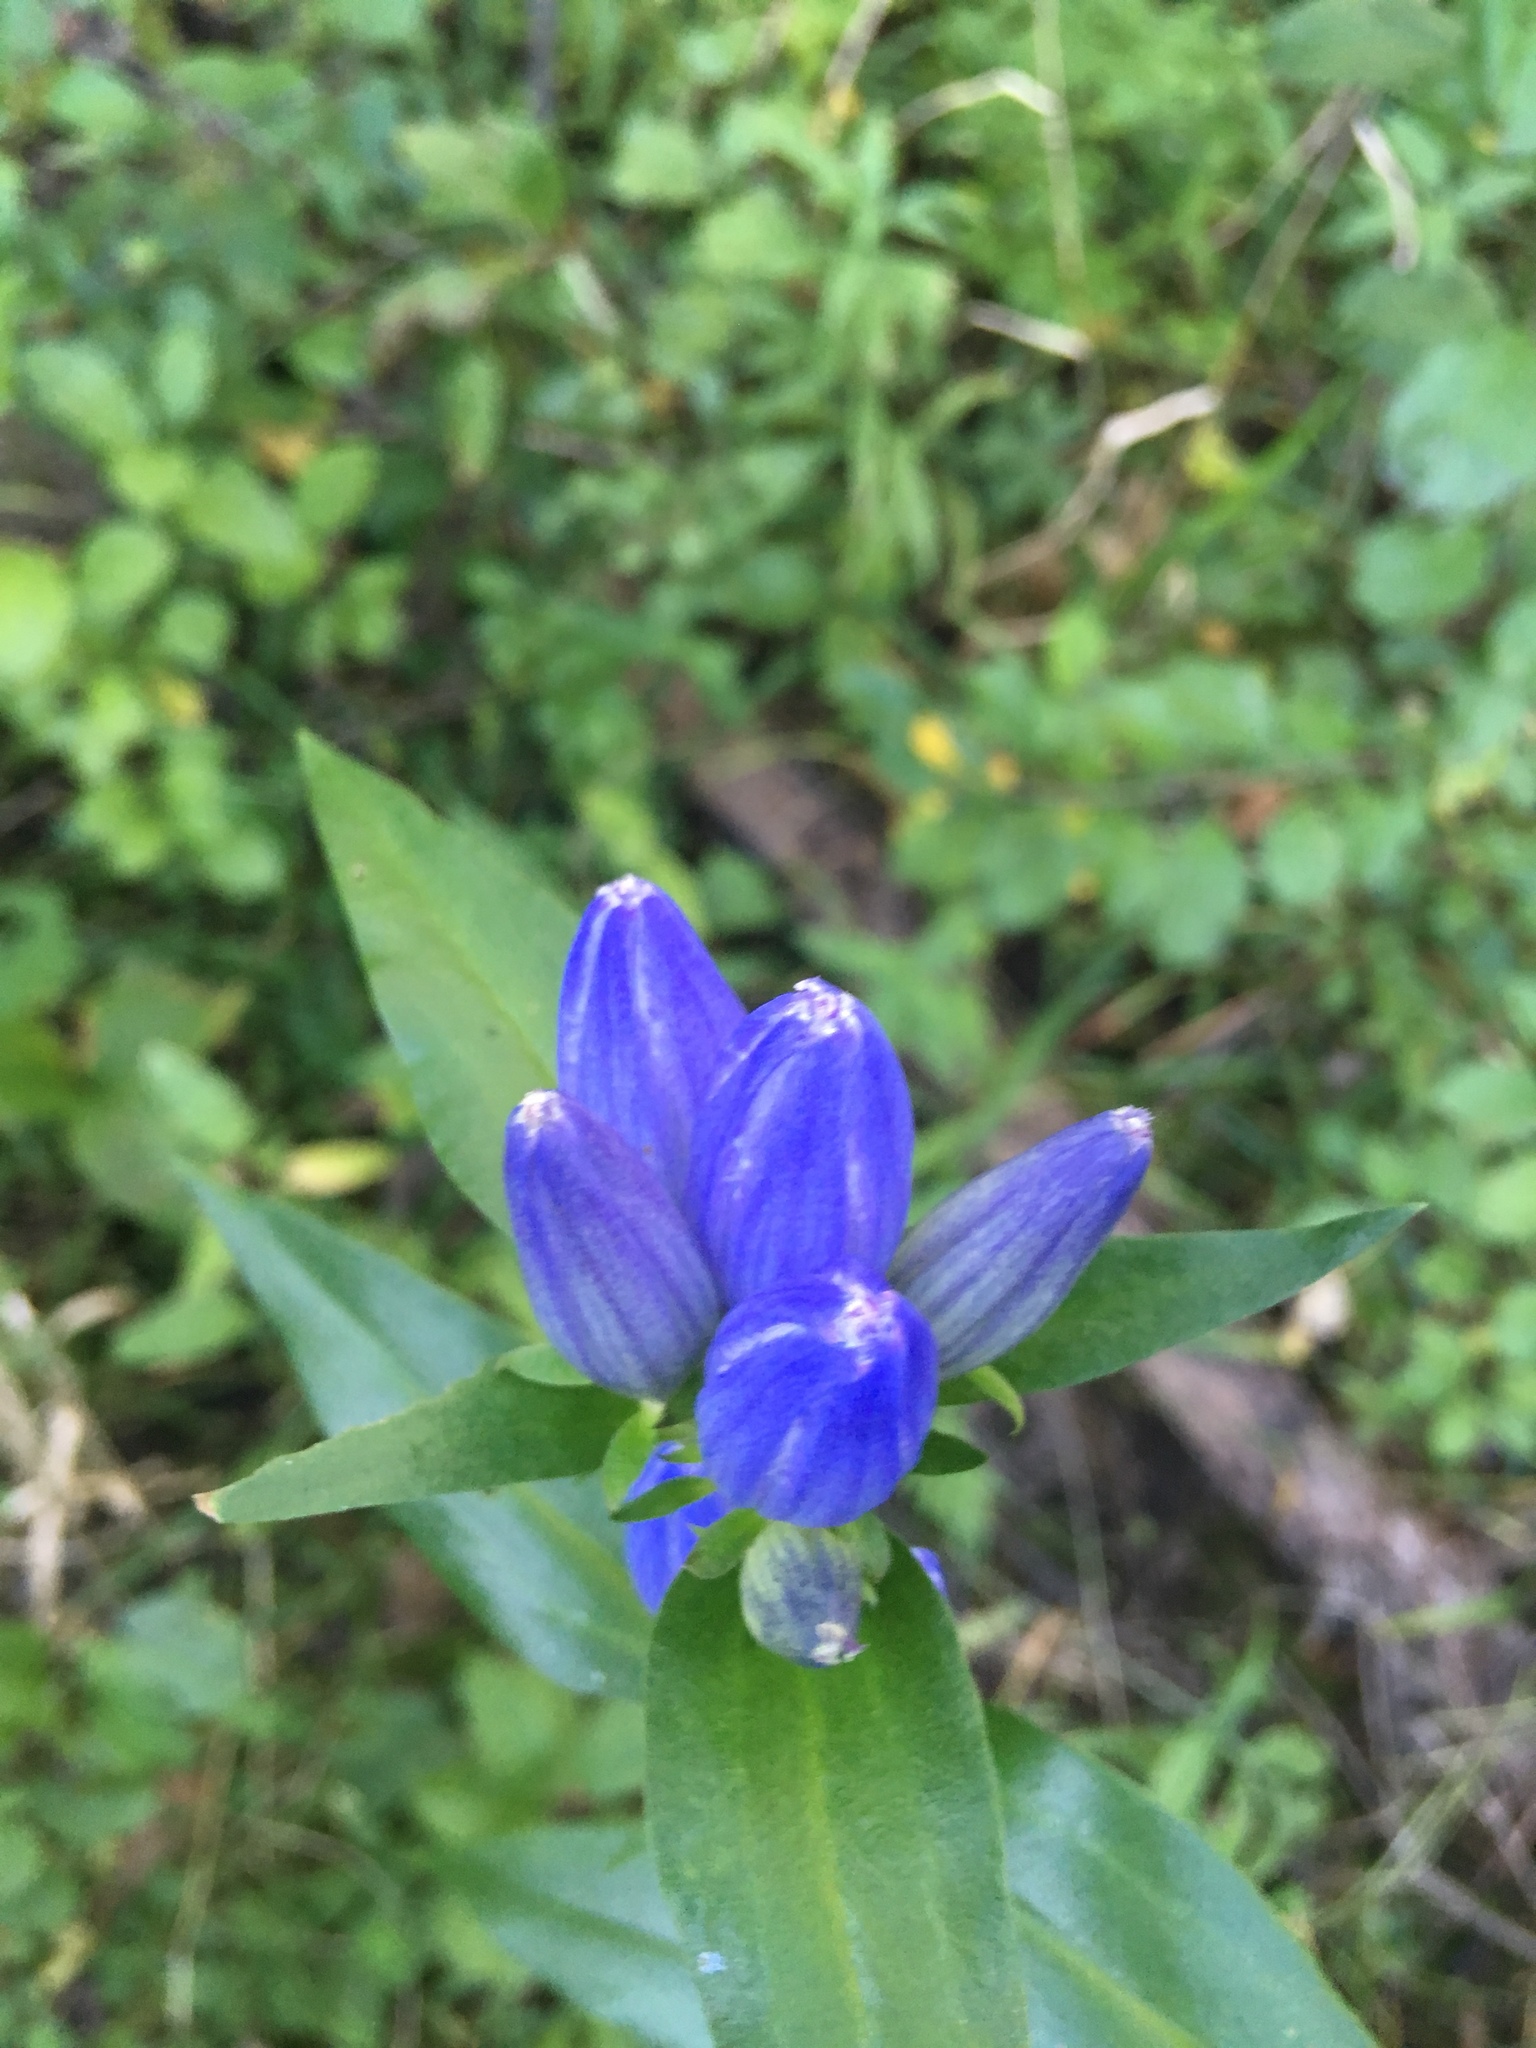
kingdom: Plantae
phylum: Tracheophyta
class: Magnoliopsida
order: Gentianales
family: Gentianaceae
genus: Gentiana
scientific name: Gentiana andrewsii
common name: Bottle gentian
